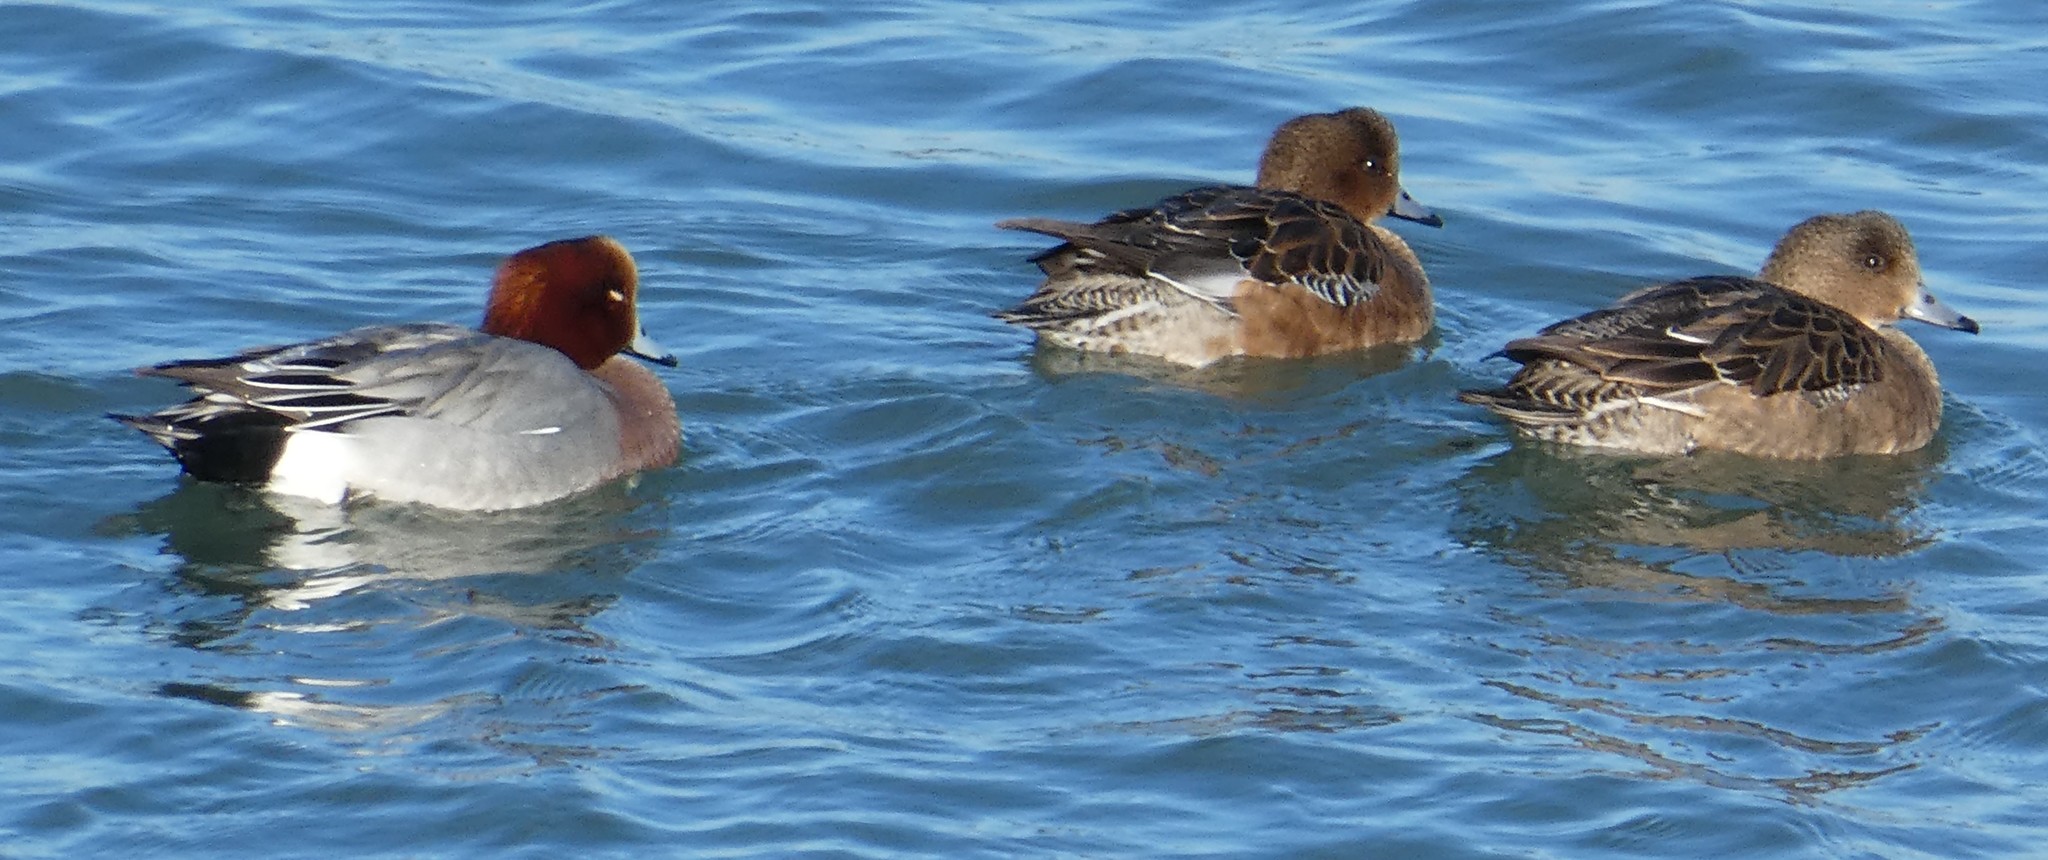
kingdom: Animalia
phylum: Chordata
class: Aves
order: Anseriformes
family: Anatidae
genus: Mareca
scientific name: Mareca penelope
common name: Eurasian wigeon
